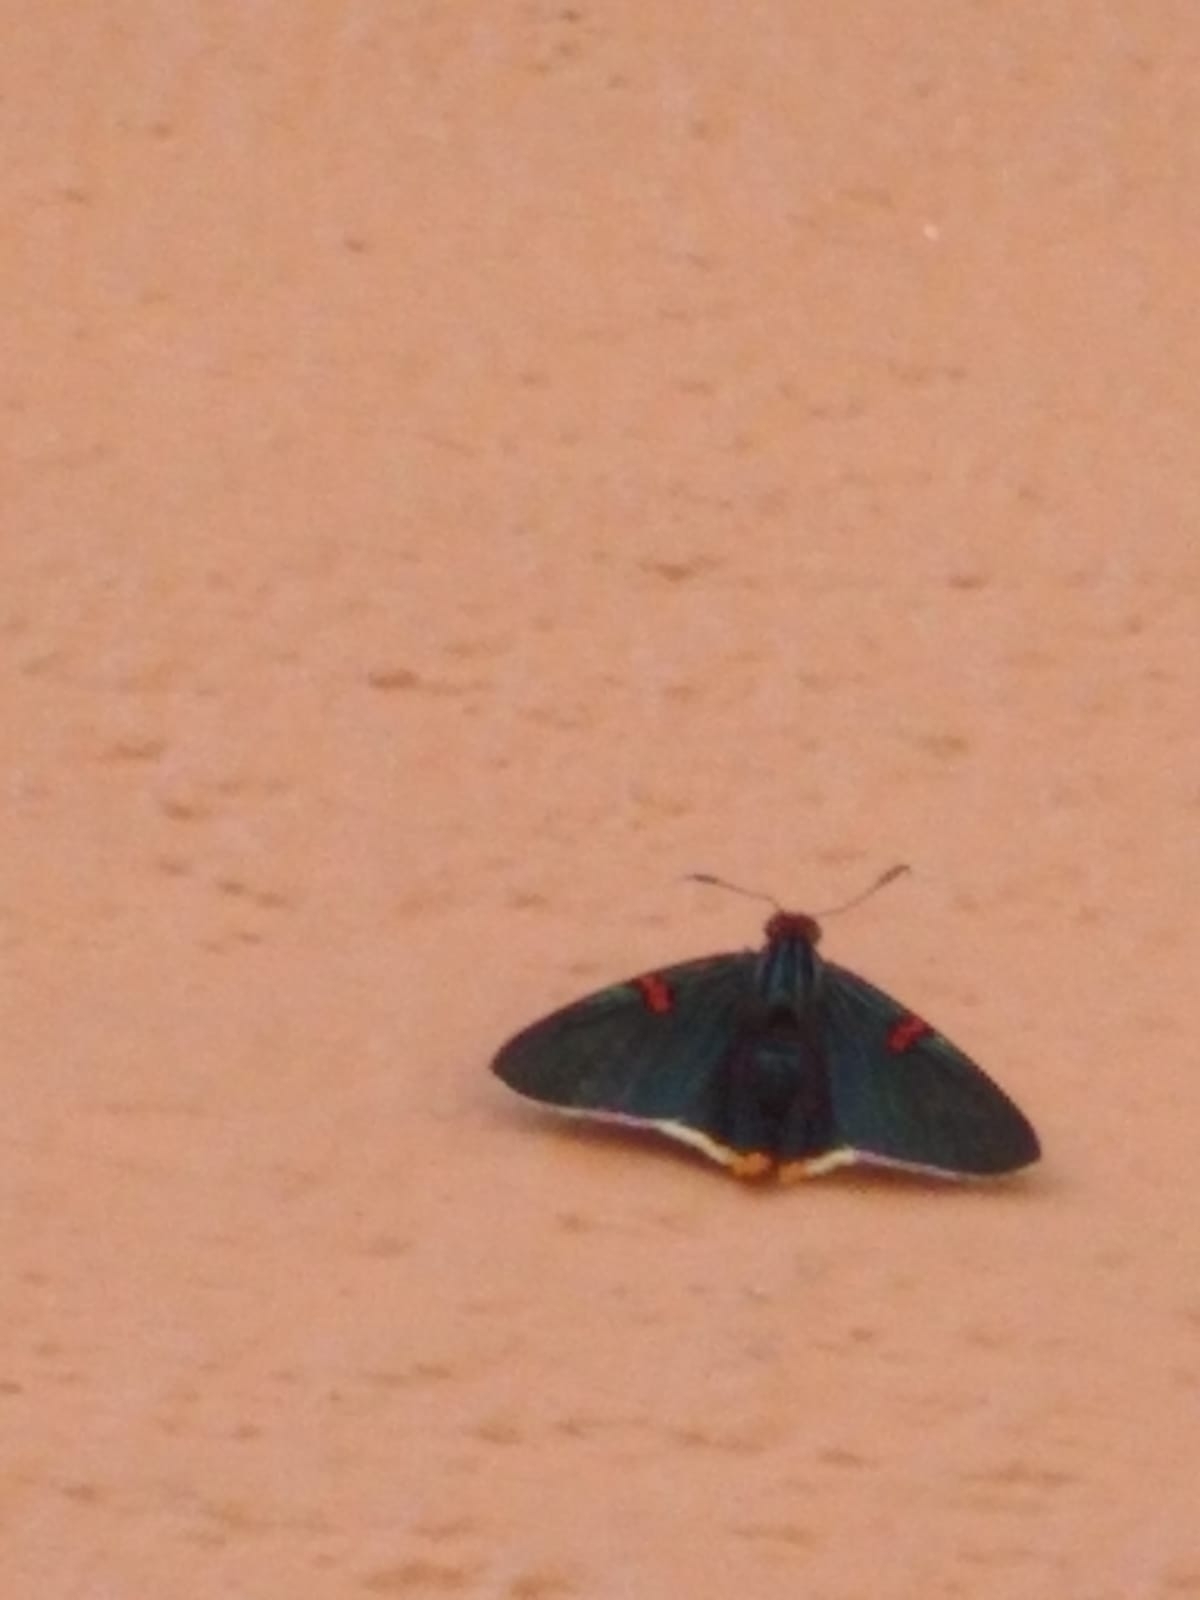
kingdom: Animalia
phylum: Arthropoda
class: Insecta
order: Lepidoptera
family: Hesperiidae
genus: Phocides
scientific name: Phocides polybius
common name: Guava skipper
